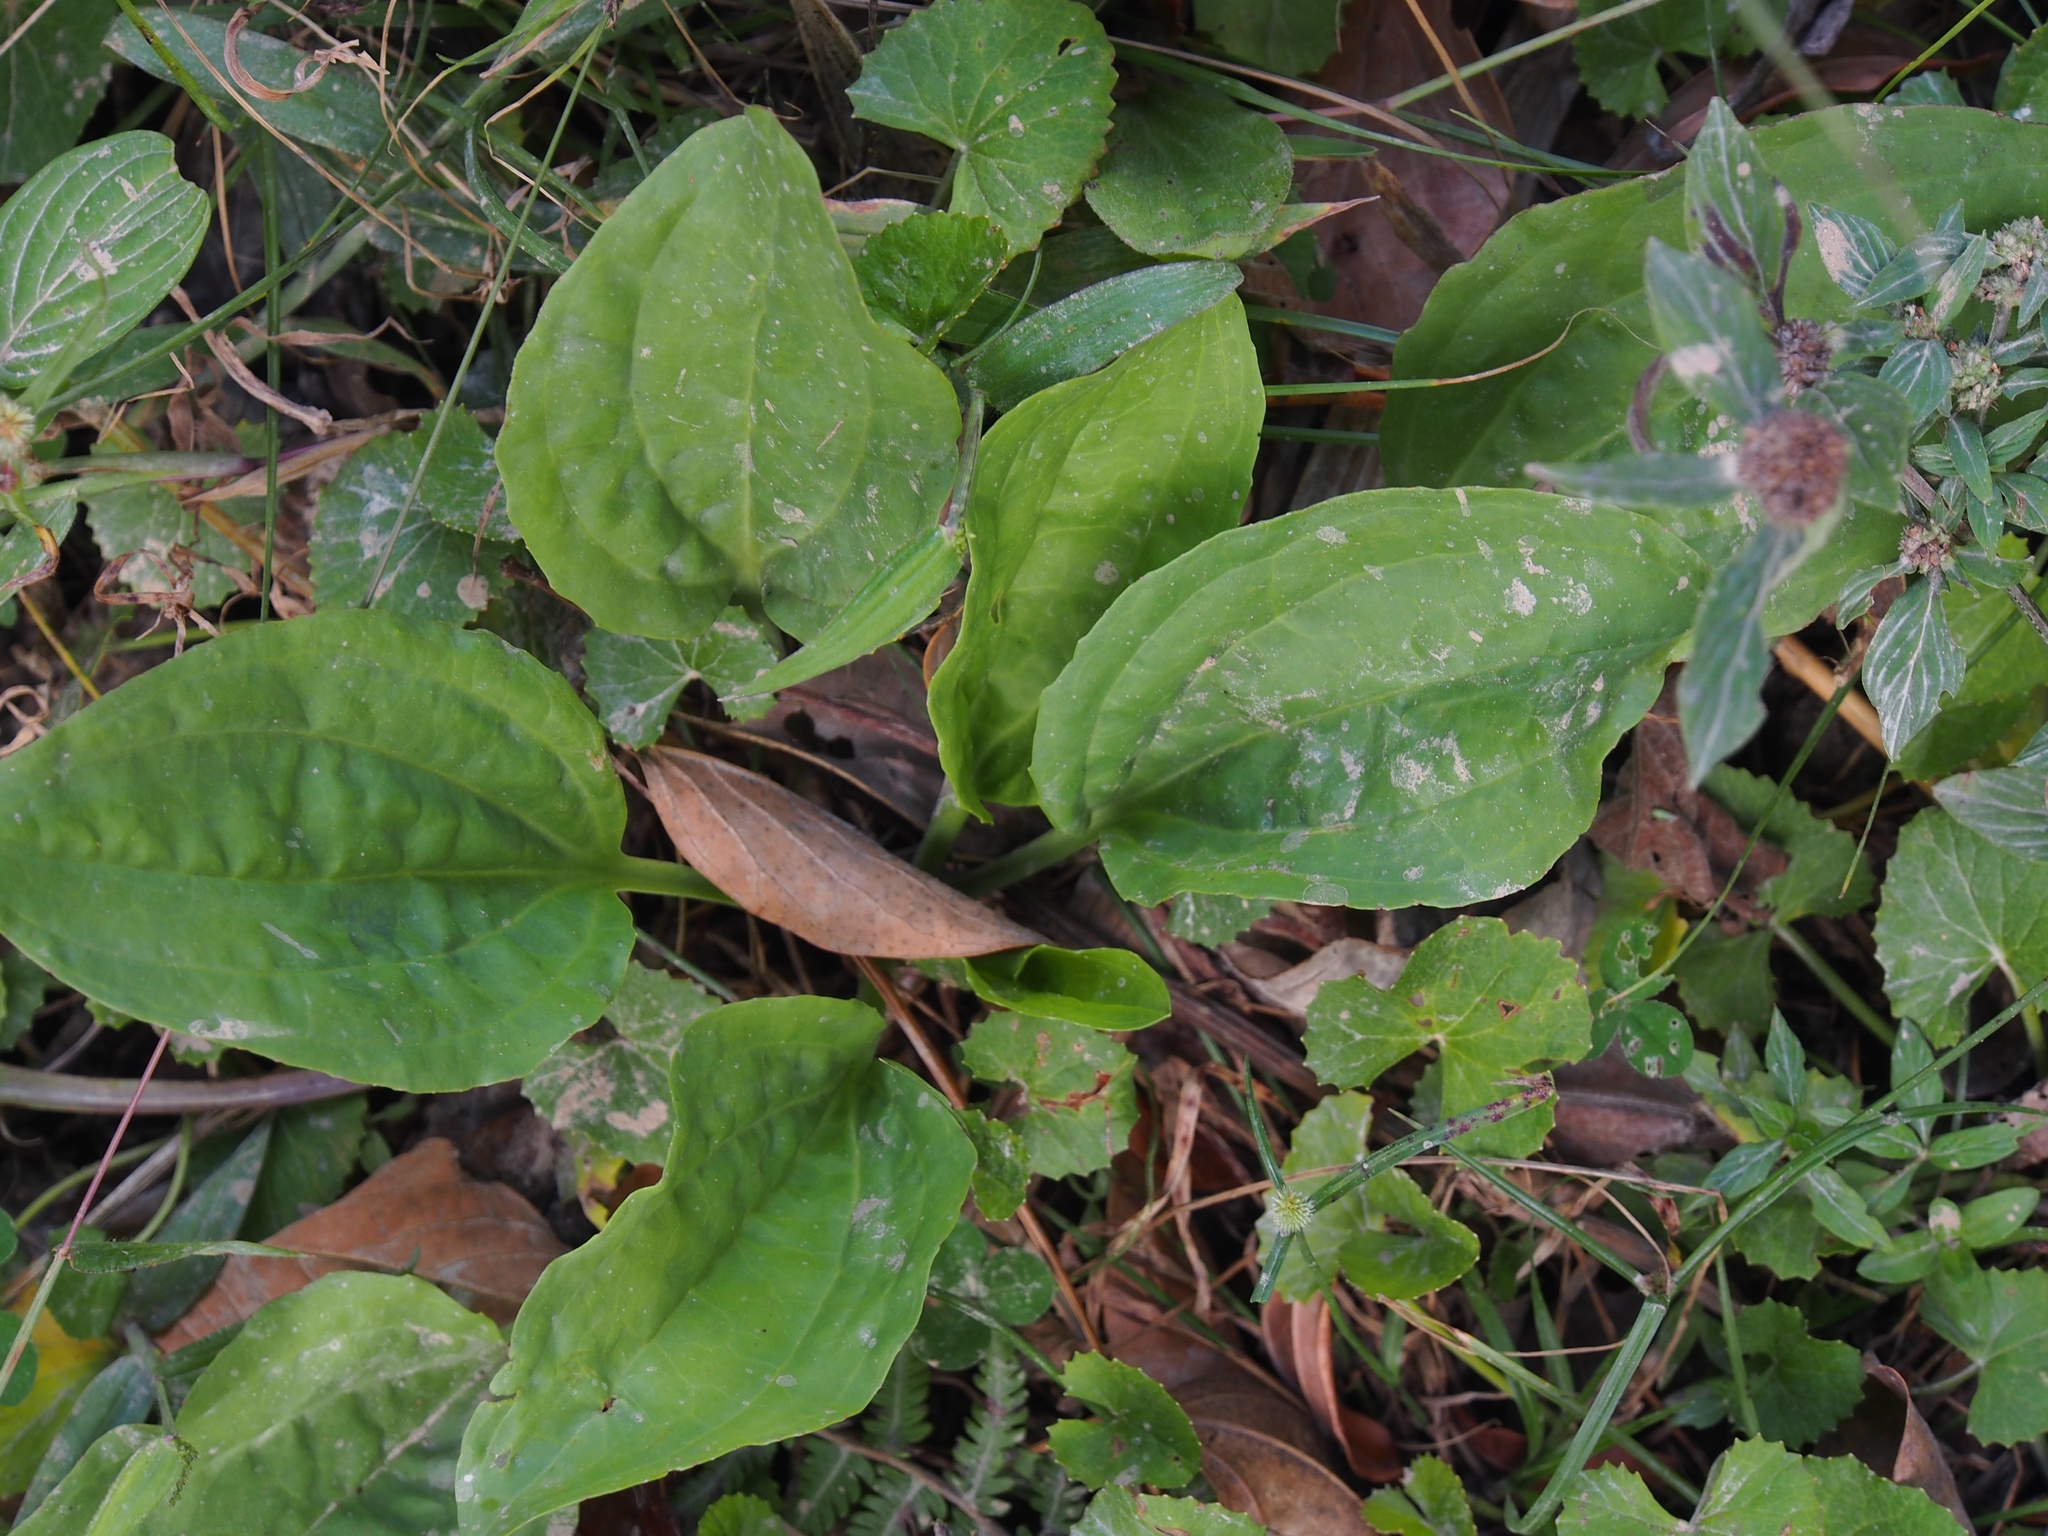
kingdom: Plantae
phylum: Tracheophyta
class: Magnoliopsida
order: Lamiales
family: Plantaginaceae
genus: Plantago
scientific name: Plantago major
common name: Common plantain
